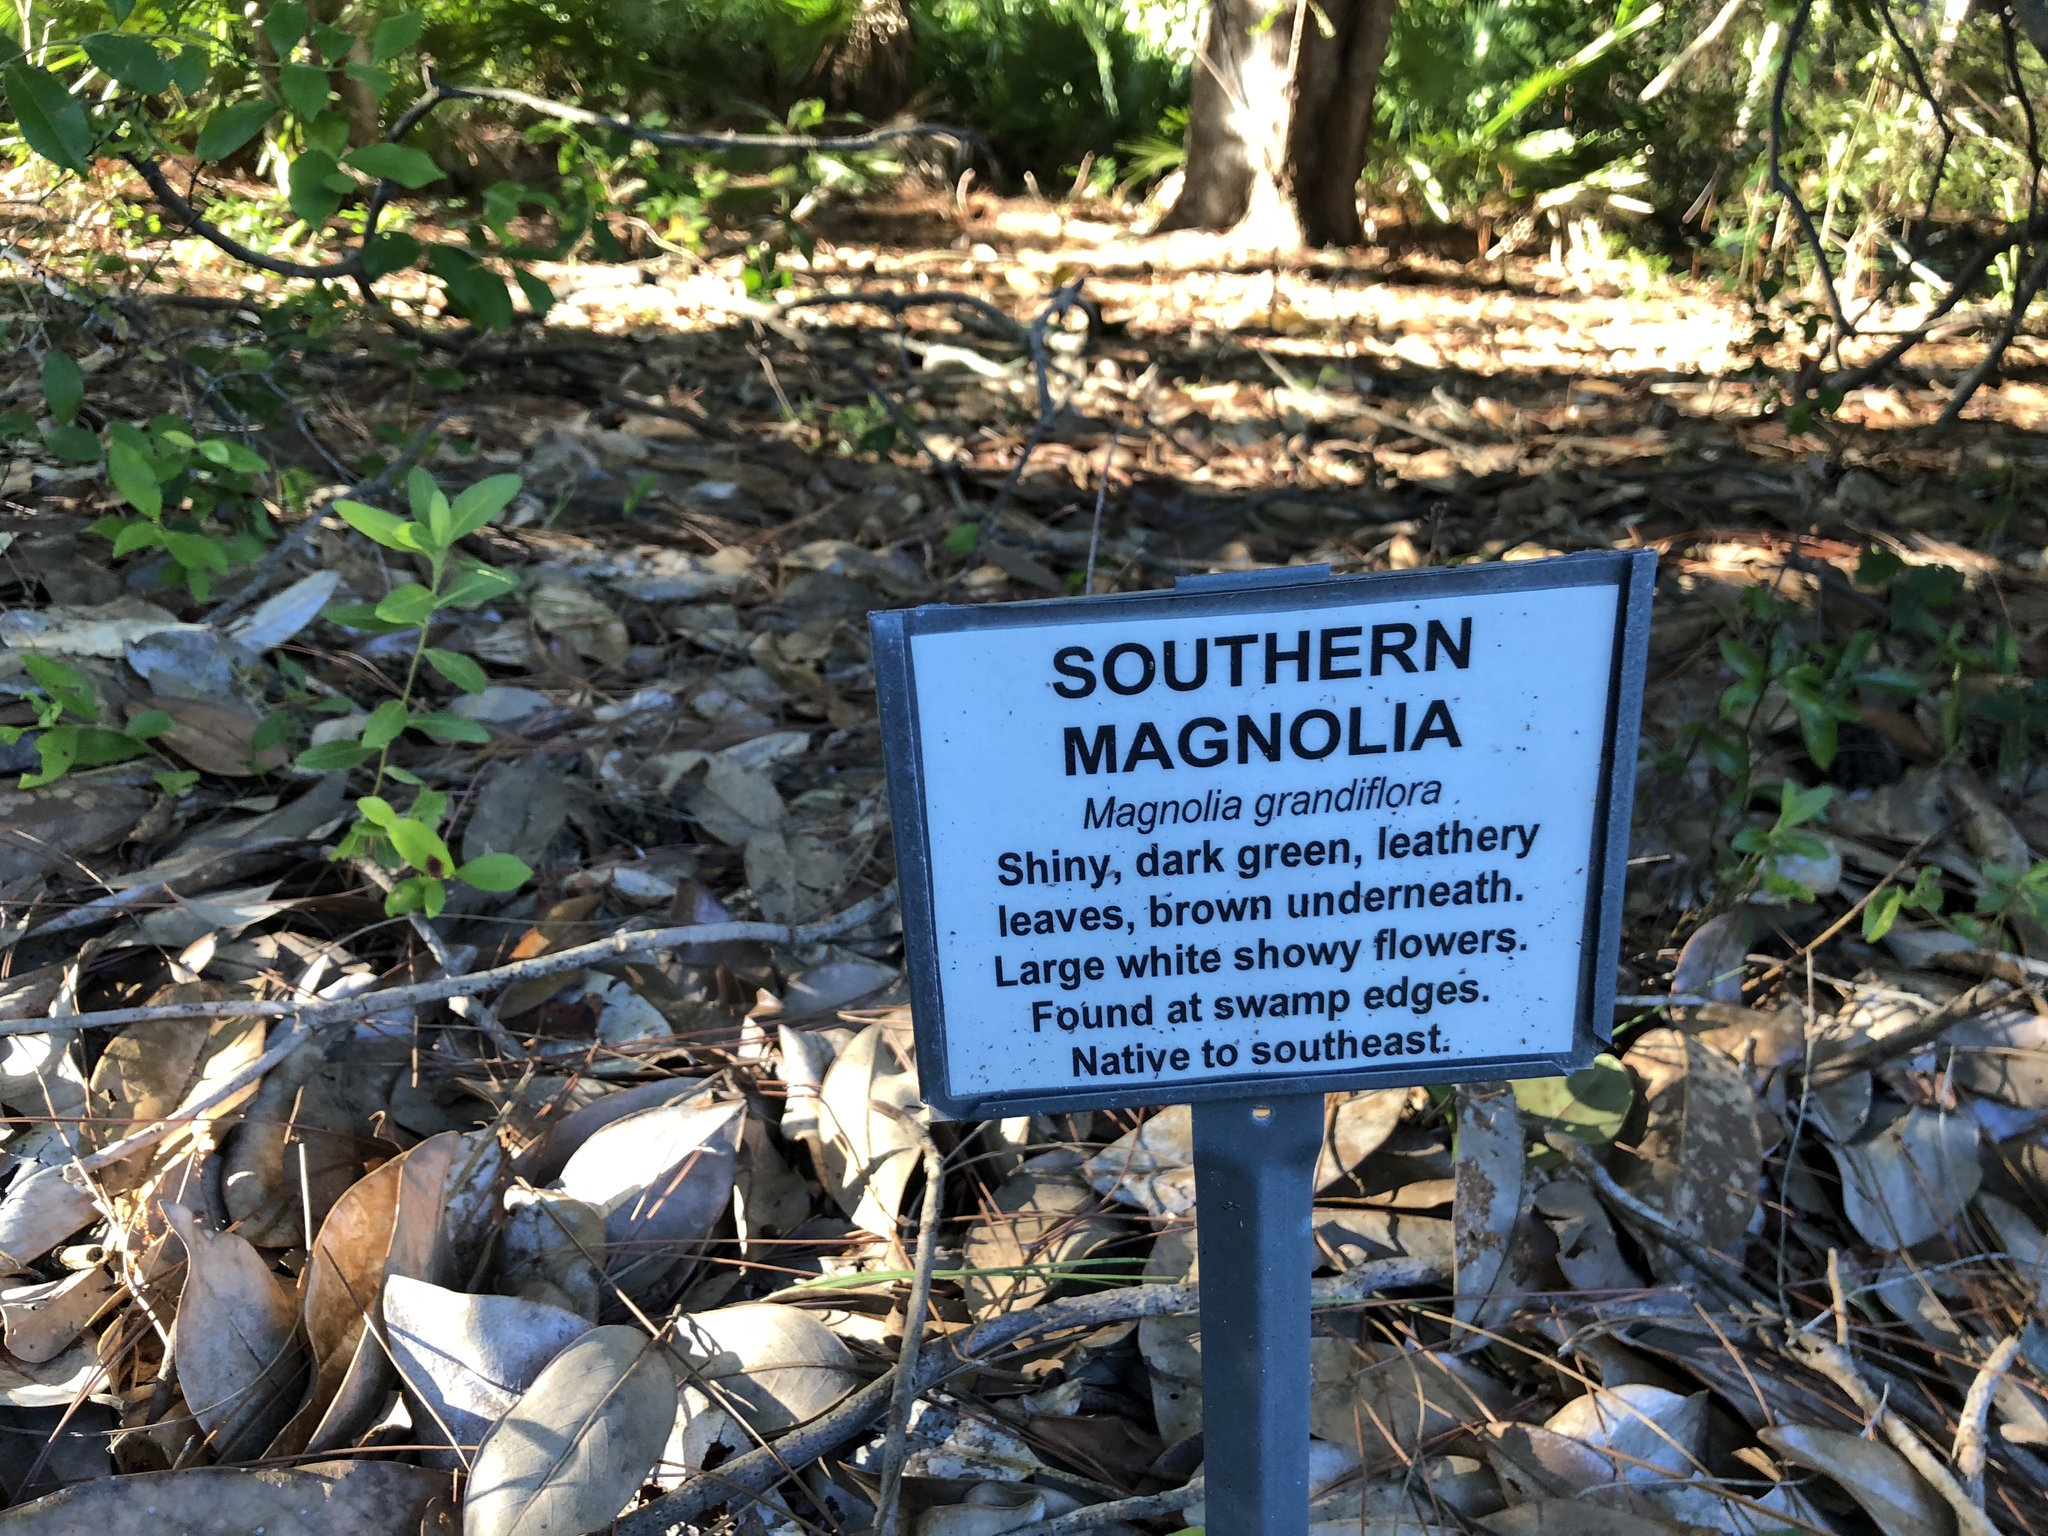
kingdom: Plantae
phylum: Tracheophyta
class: Magnoliopsida
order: Magnoliales
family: Magnoliaceae
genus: Magnolia
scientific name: Magnolia grandiflora
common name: Southern magnolia
